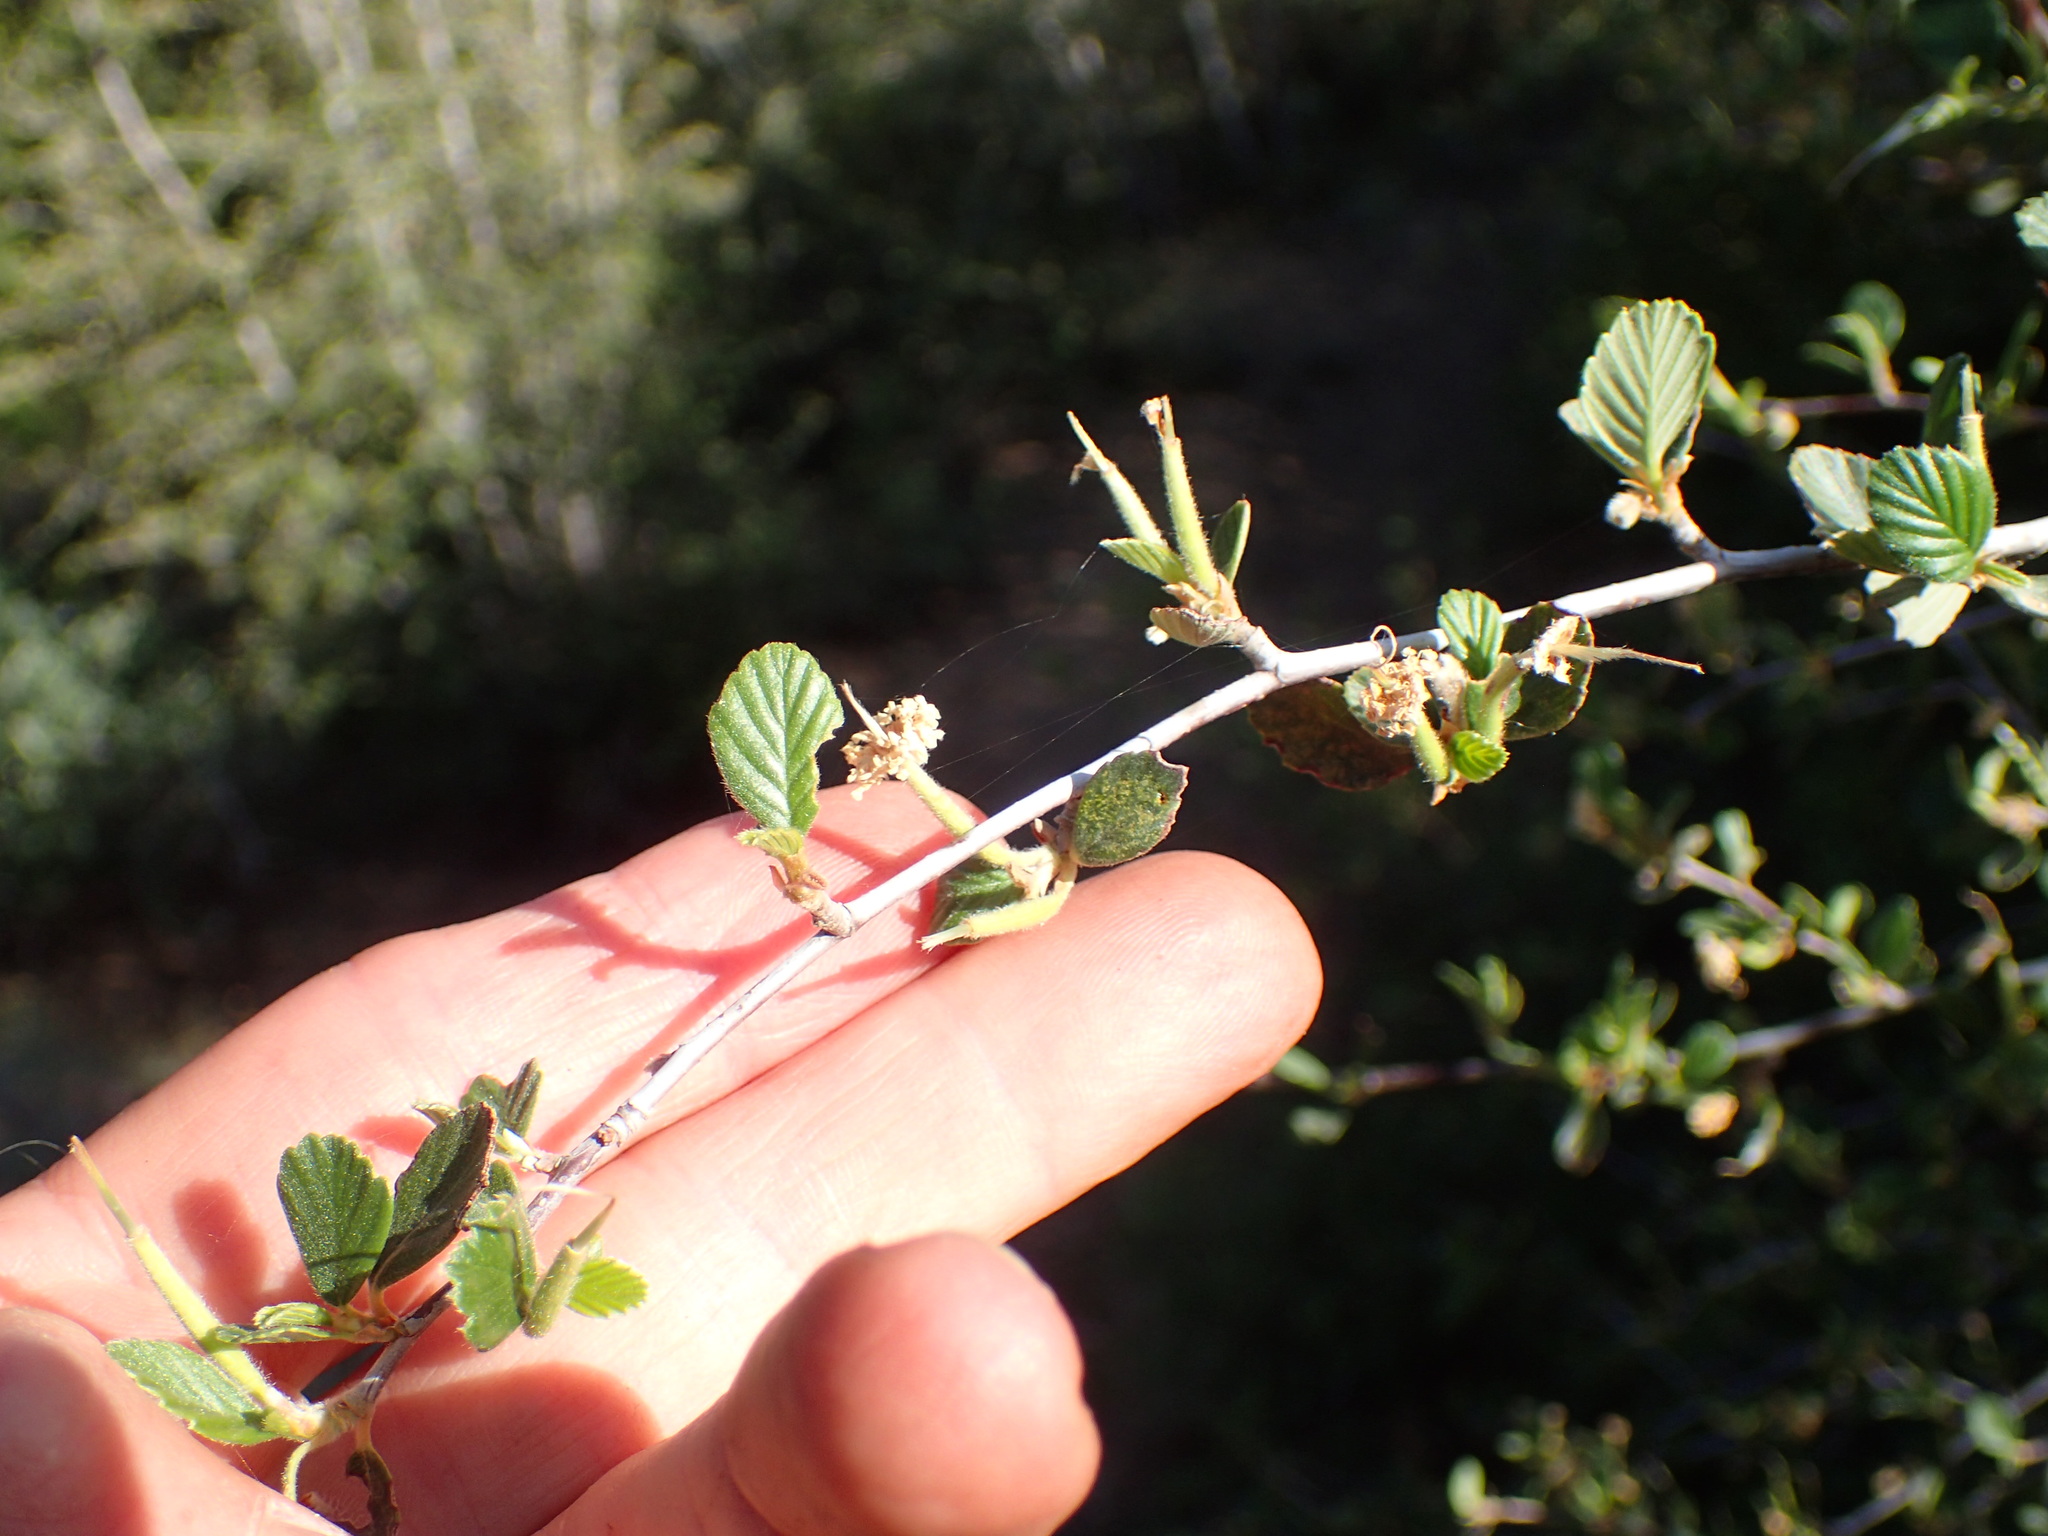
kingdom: Plantae
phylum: Tracheophyta
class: Magnoliopsida
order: Rosales
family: Rosaceae
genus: Cercocarpus
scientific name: Cercocarpus betuloides
